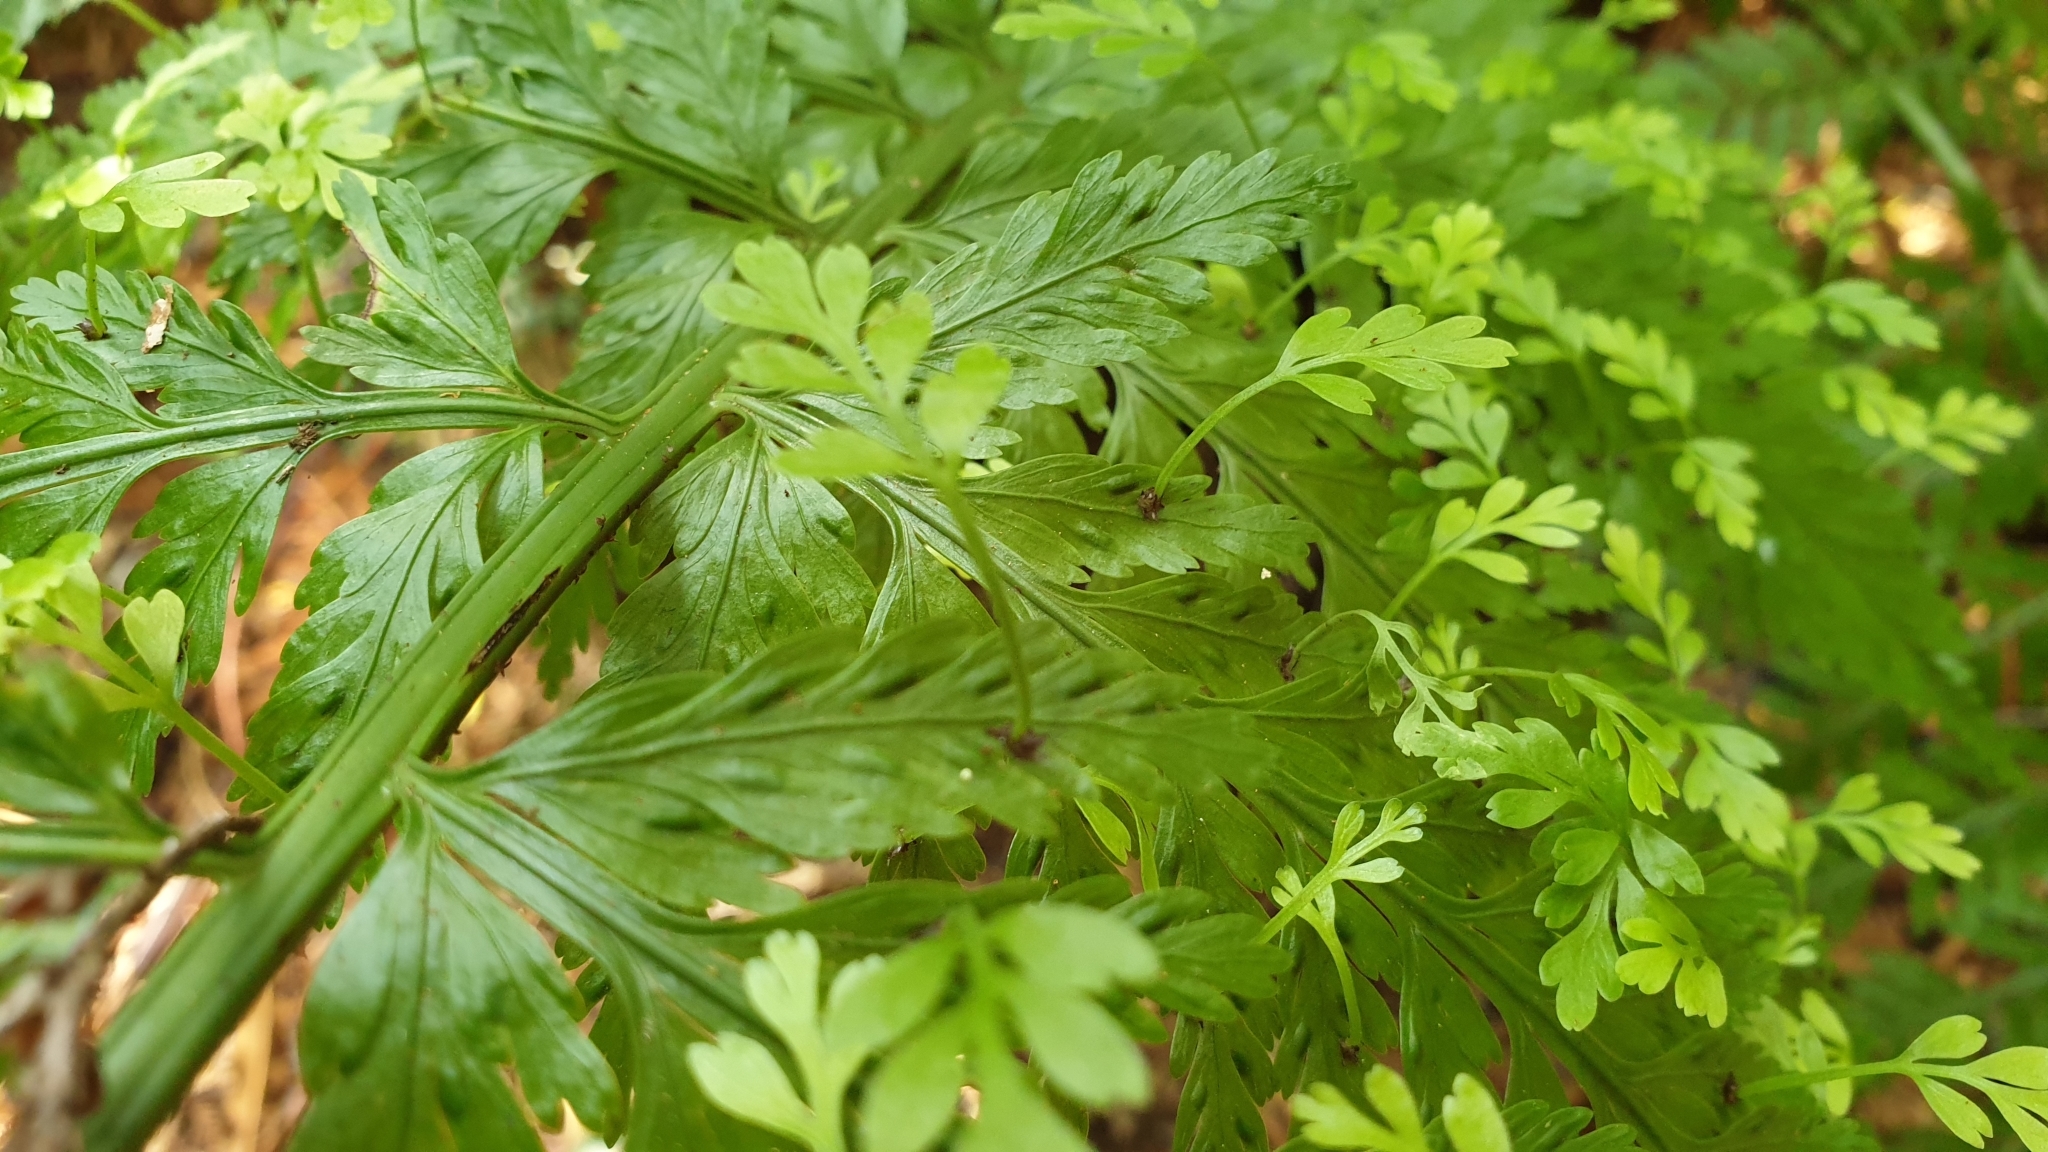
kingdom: Plantae
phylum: Tracheophyta
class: Polypodiopsida
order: Polypodiales
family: Aspleniaceae
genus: Asplenium
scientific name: Asplenium bulbiferum
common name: Mother fern
